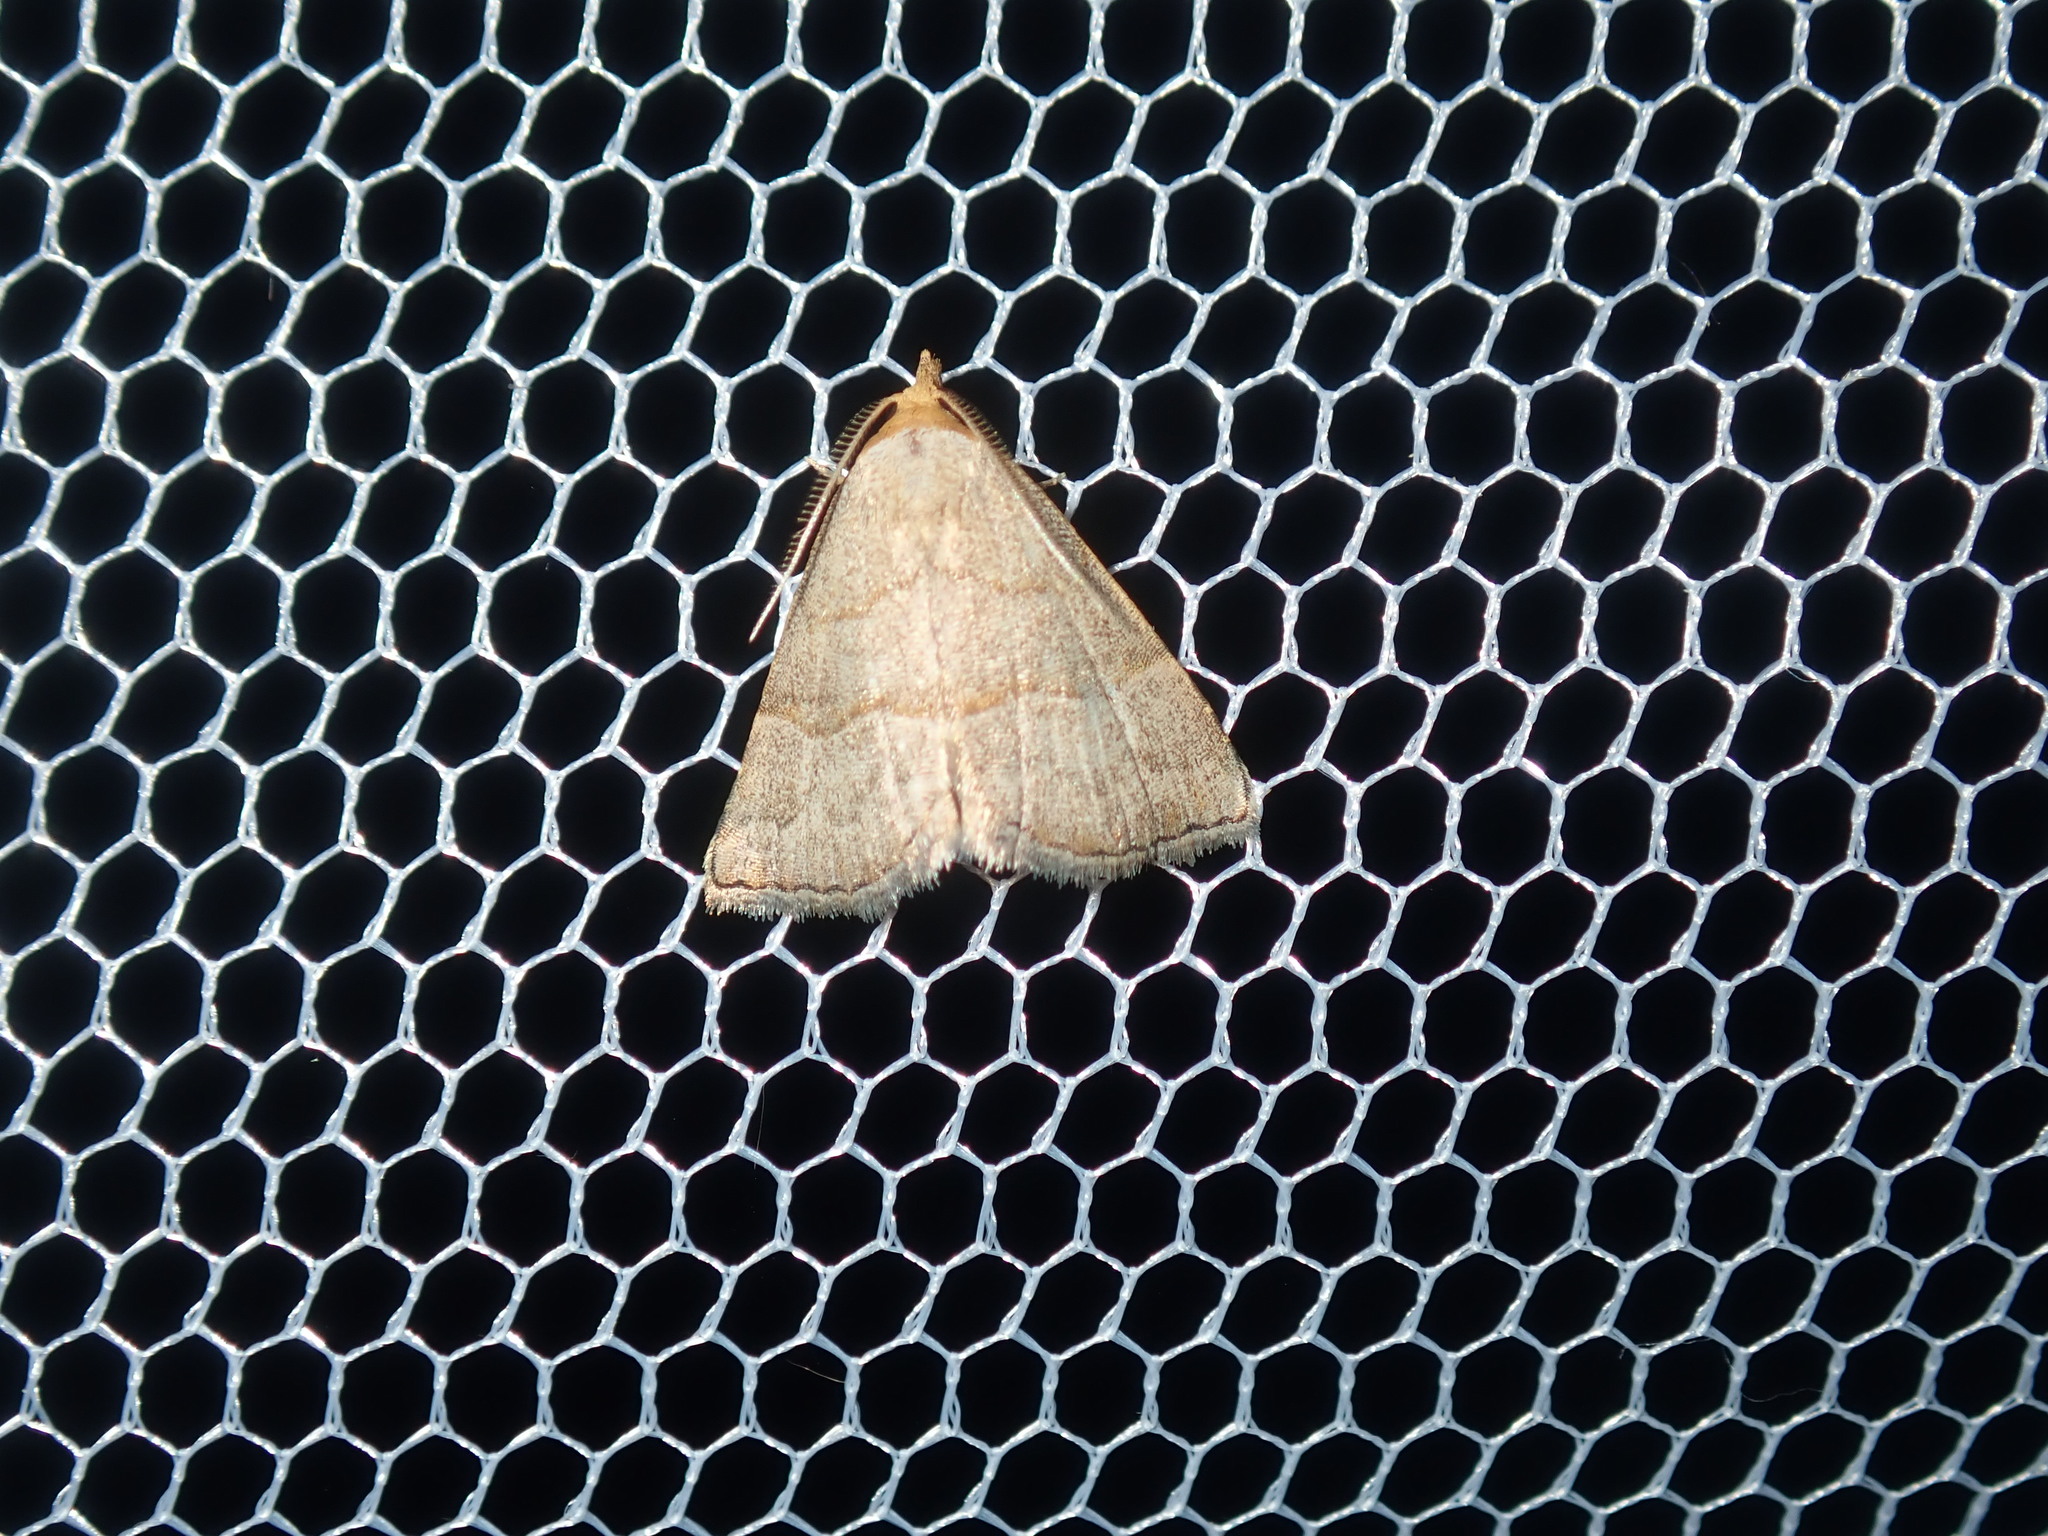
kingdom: Animalia
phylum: Arthropoda
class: Insecta
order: Lepidoptera
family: Erebidae
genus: Meranda
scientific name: Meranda susialis
